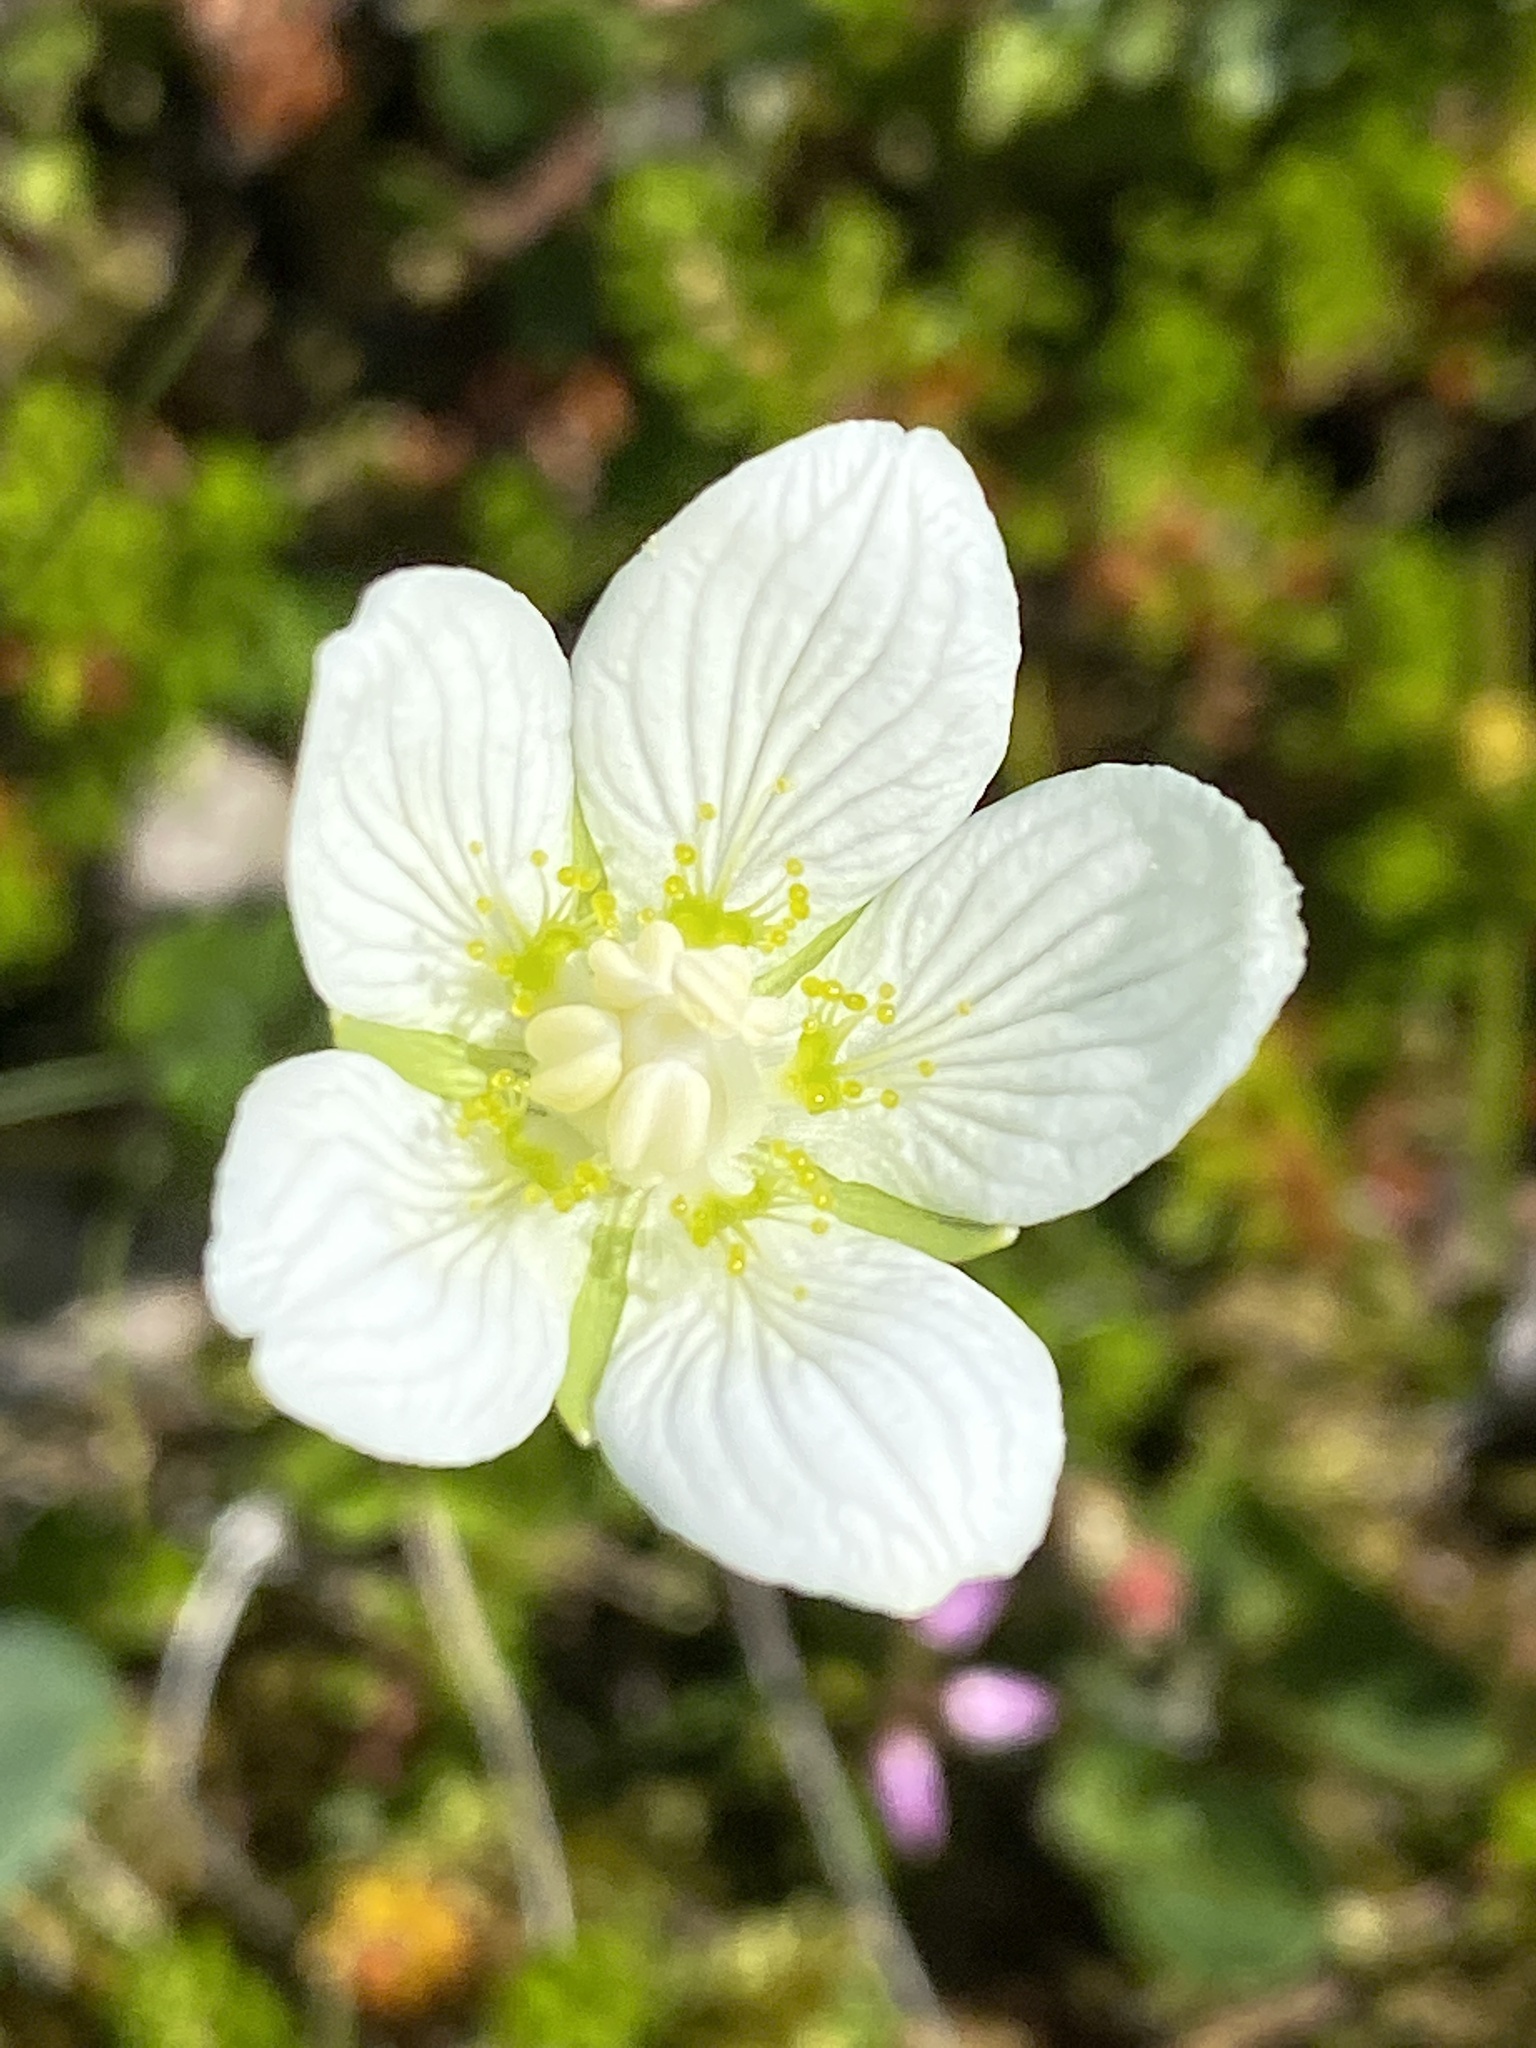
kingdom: Plantae
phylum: Tracheophyta
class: Magnoliopsida
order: Celastrales
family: Parnassiaceae
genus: Parnassia
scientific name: Parnassia palustris
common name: Grass-of-parnassus
